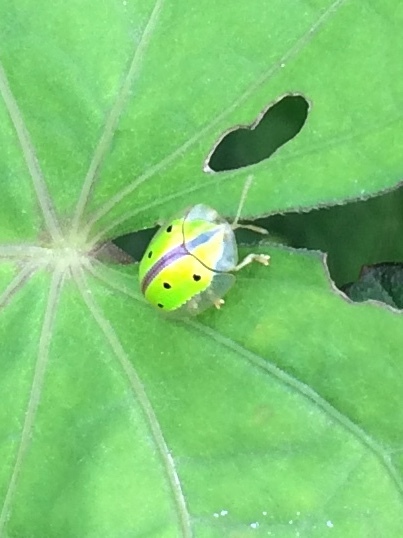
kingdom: Animalia
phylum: Arthropoda
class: Insecta
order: Coleoptera
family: Chrysomelidae
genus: Chiridopsis
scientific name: Chiridopsis bipunctata
